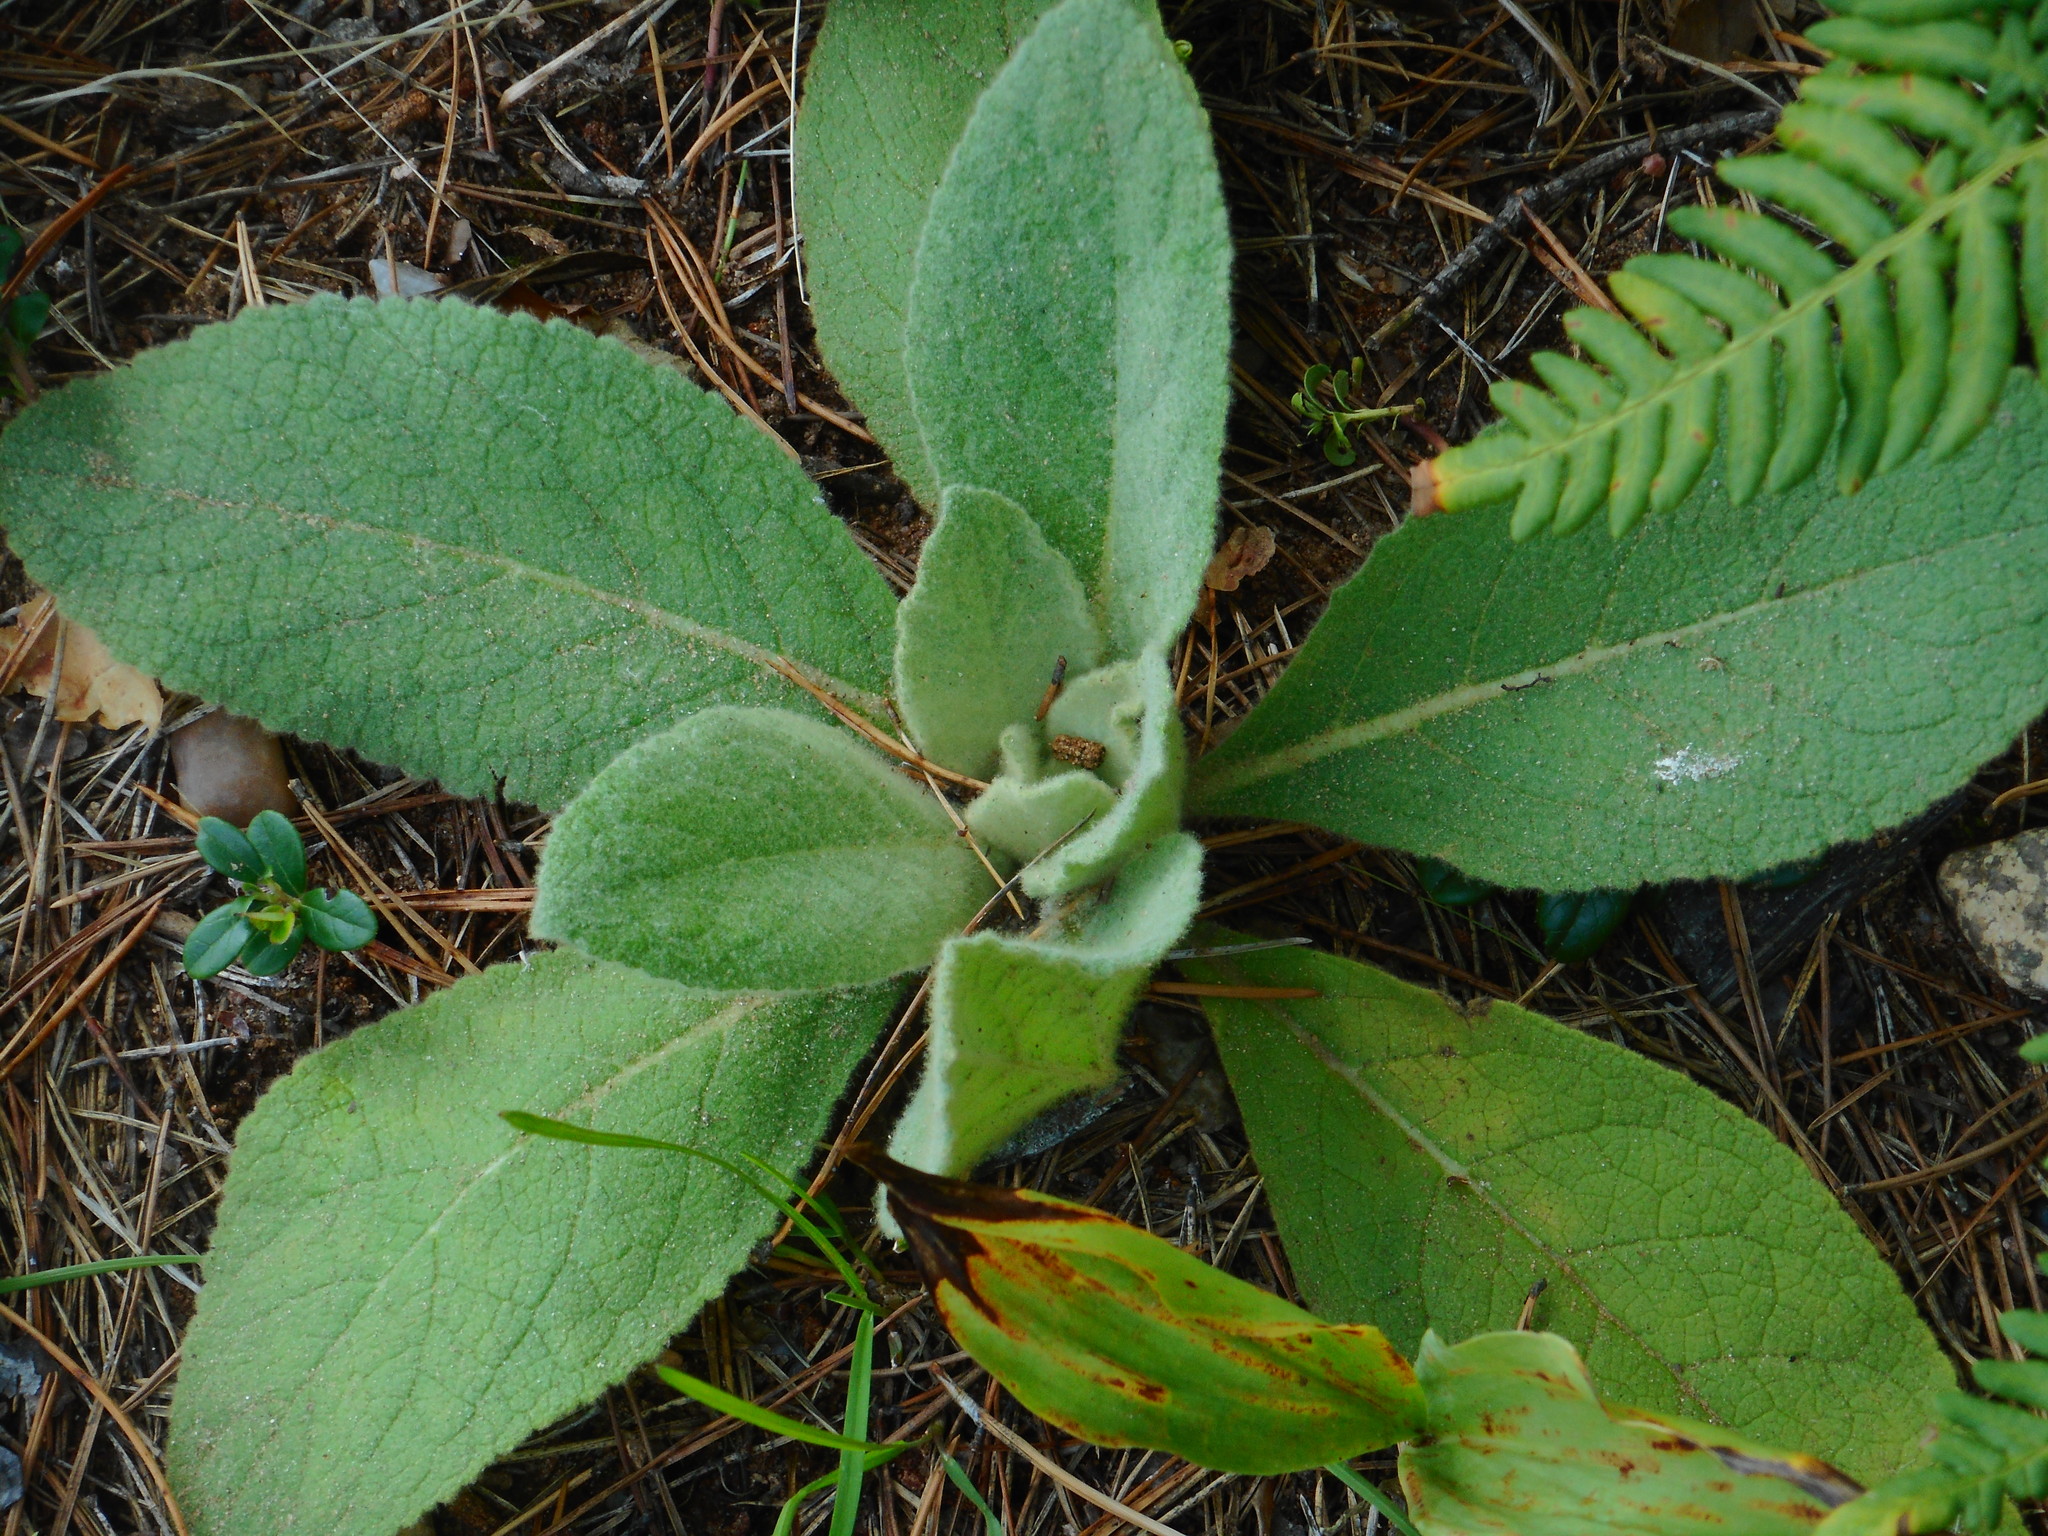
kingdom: Plantae
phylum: Tracheophyta
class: Magnoliopsida
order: Lamiales
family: Scrophulariaceae
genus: Verbascum
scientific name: Verbascum thapsus
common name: Common mullein
